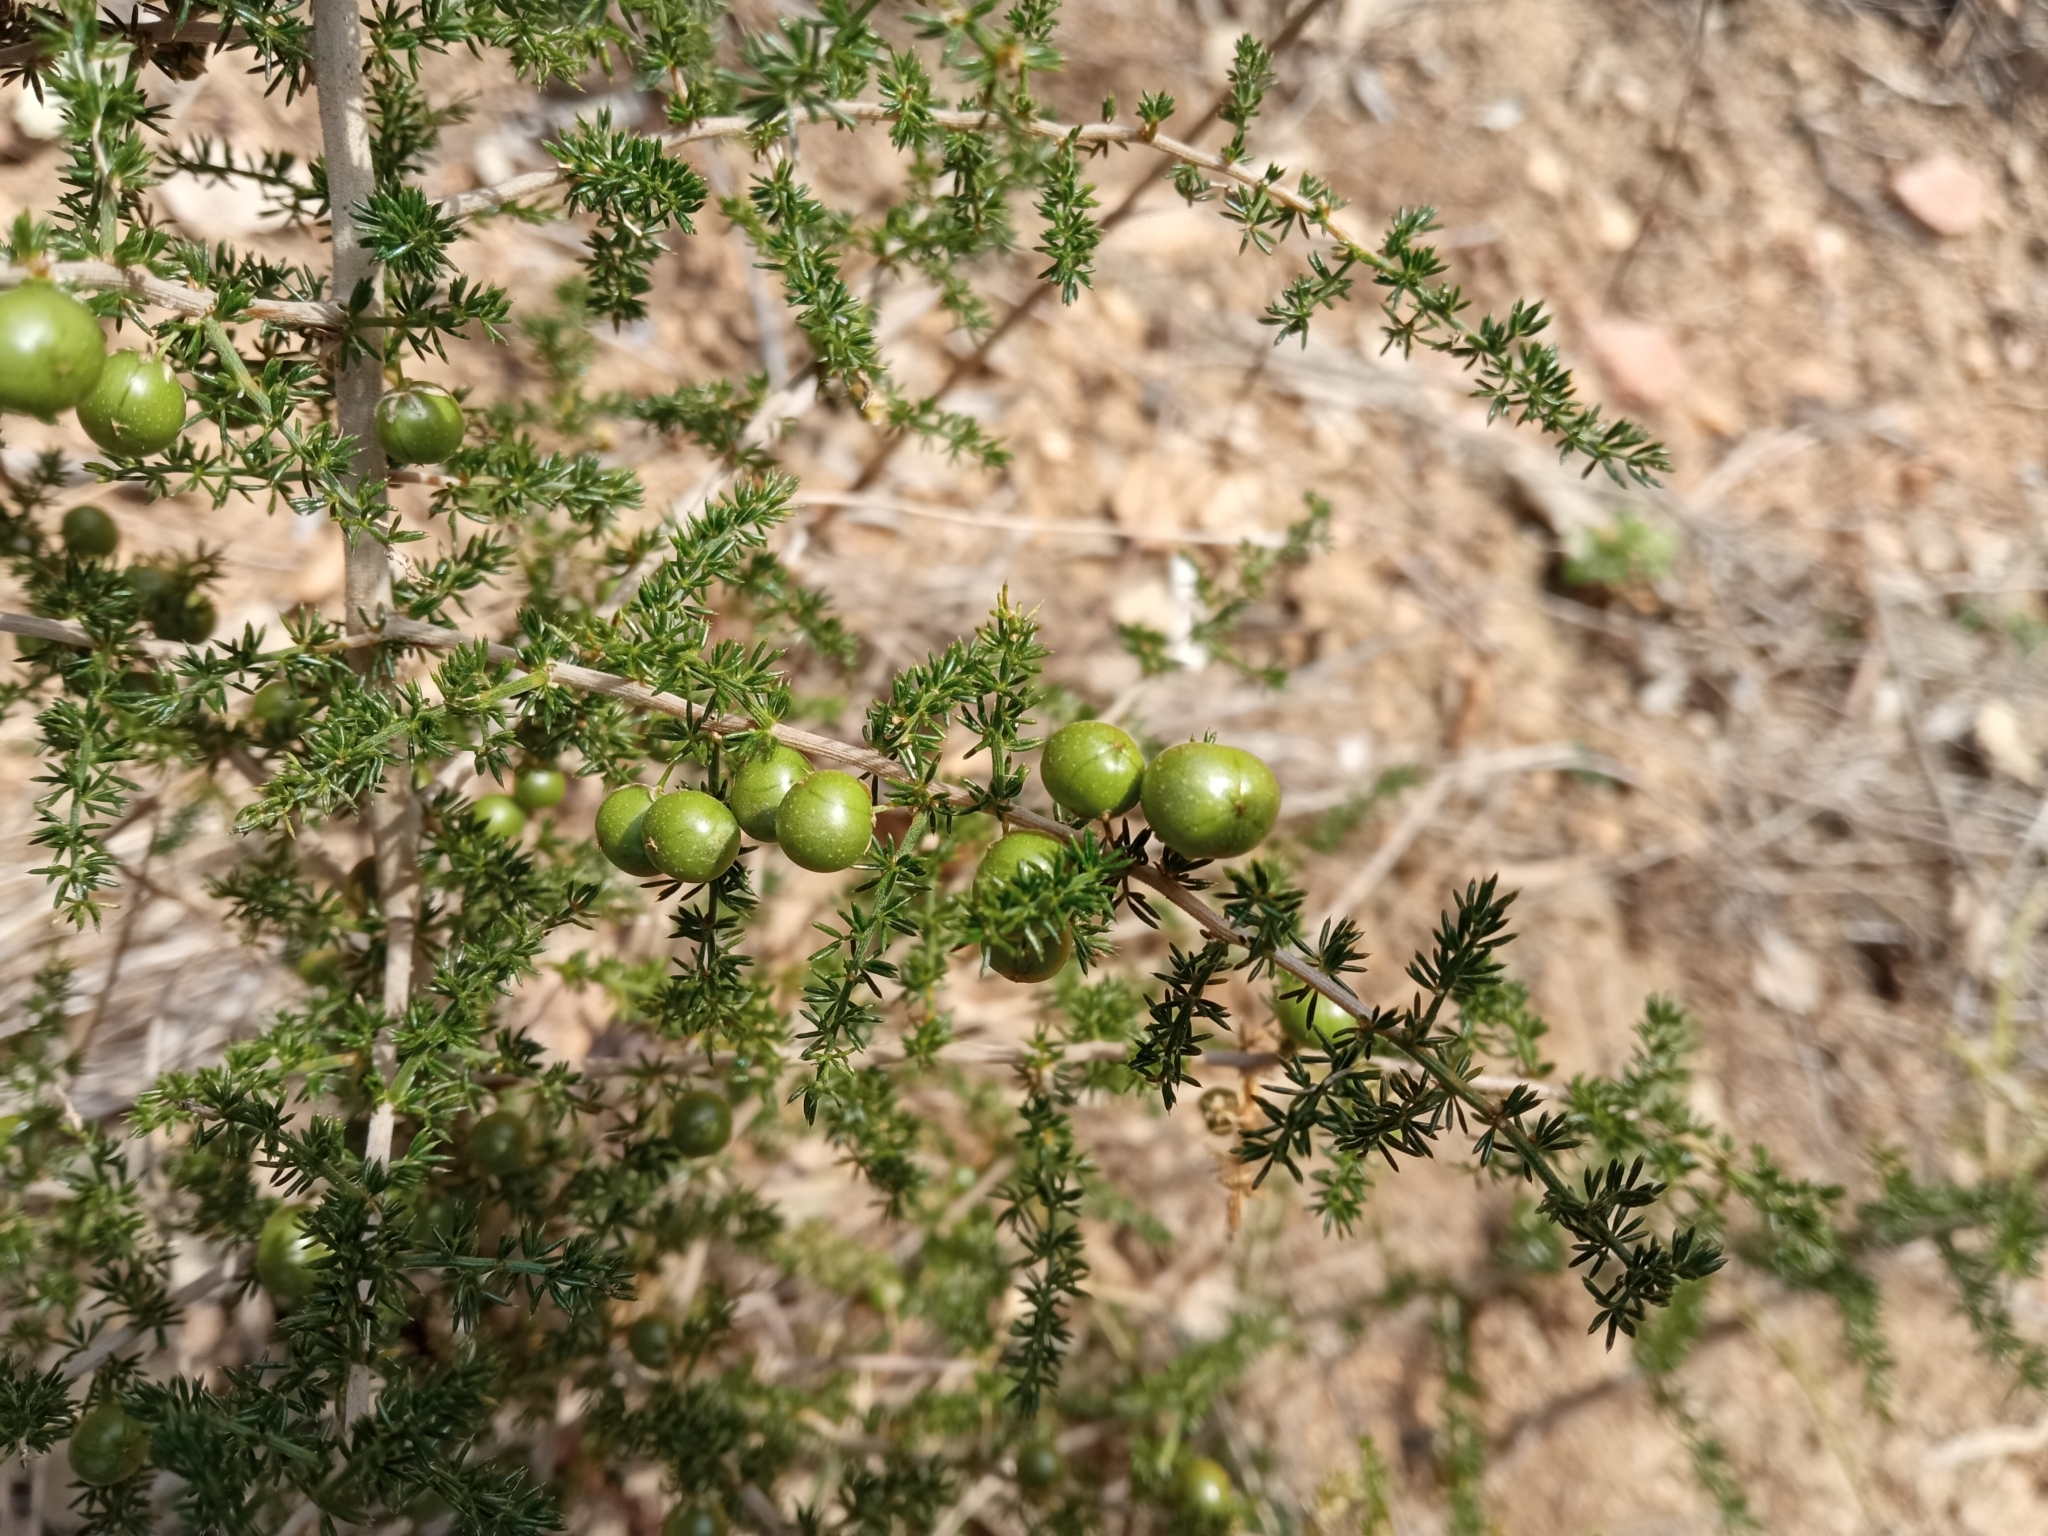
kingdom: Plantae
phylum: Tracheophyta
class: Liliopsida
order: Asparagales
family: Asparagaceae
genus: Asparagus
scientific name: Asparagus acutifolius
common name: Wild asparagus
